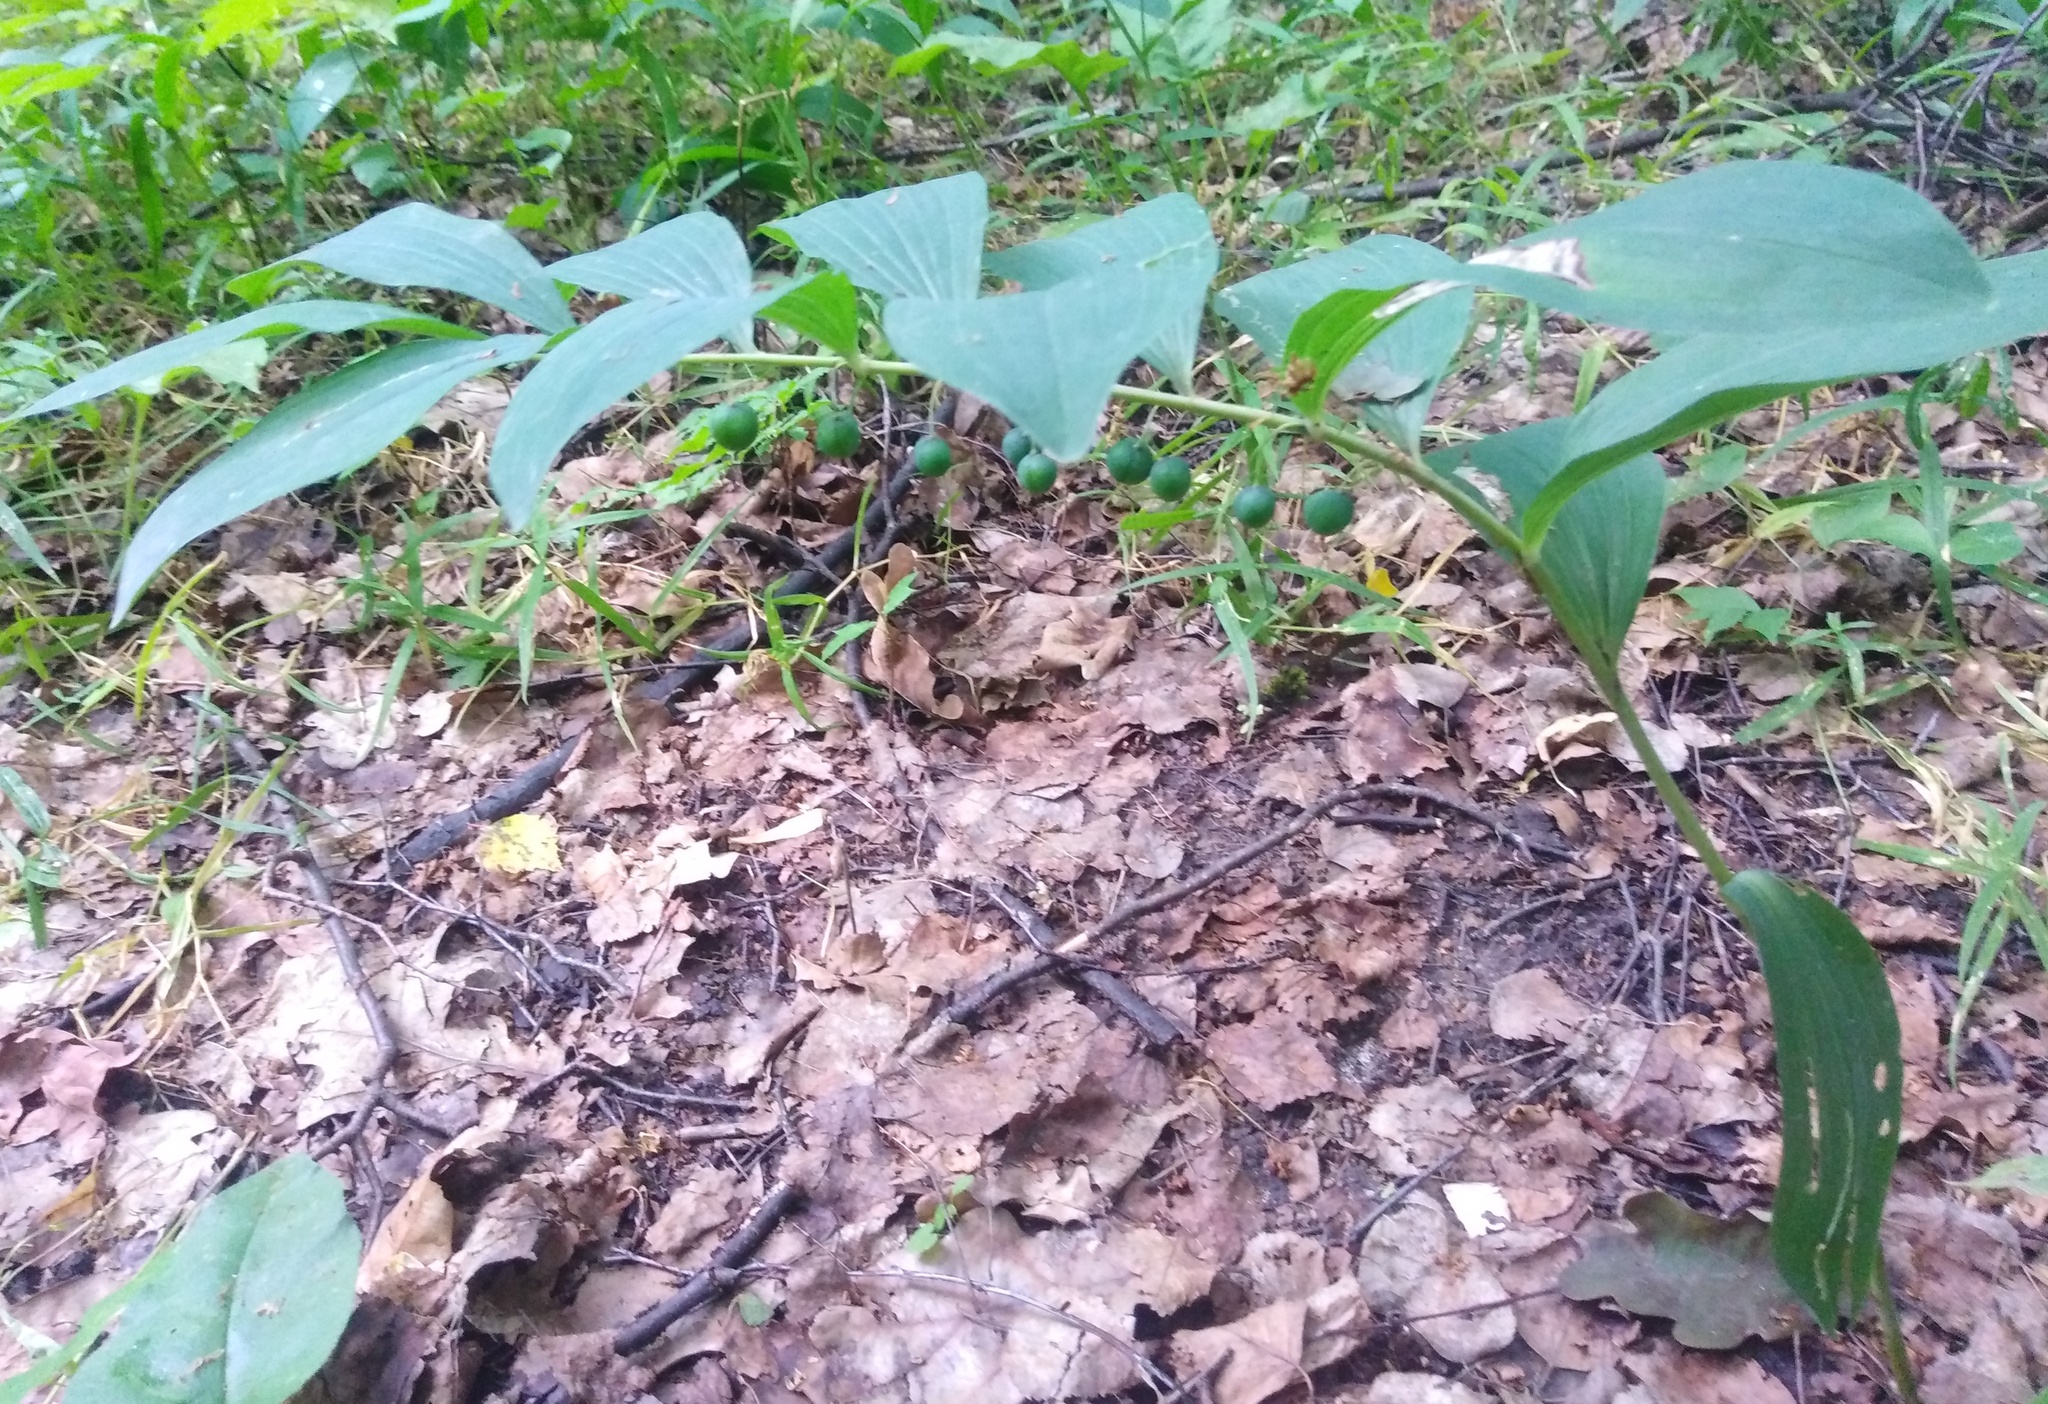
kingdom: Plantae
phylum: Tracheophyta
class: Liliopsida
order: Asparagales
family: Asparagaceae
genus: Polygonatum
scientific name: Polygonatum multiflorum
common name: Solomon's-seal
